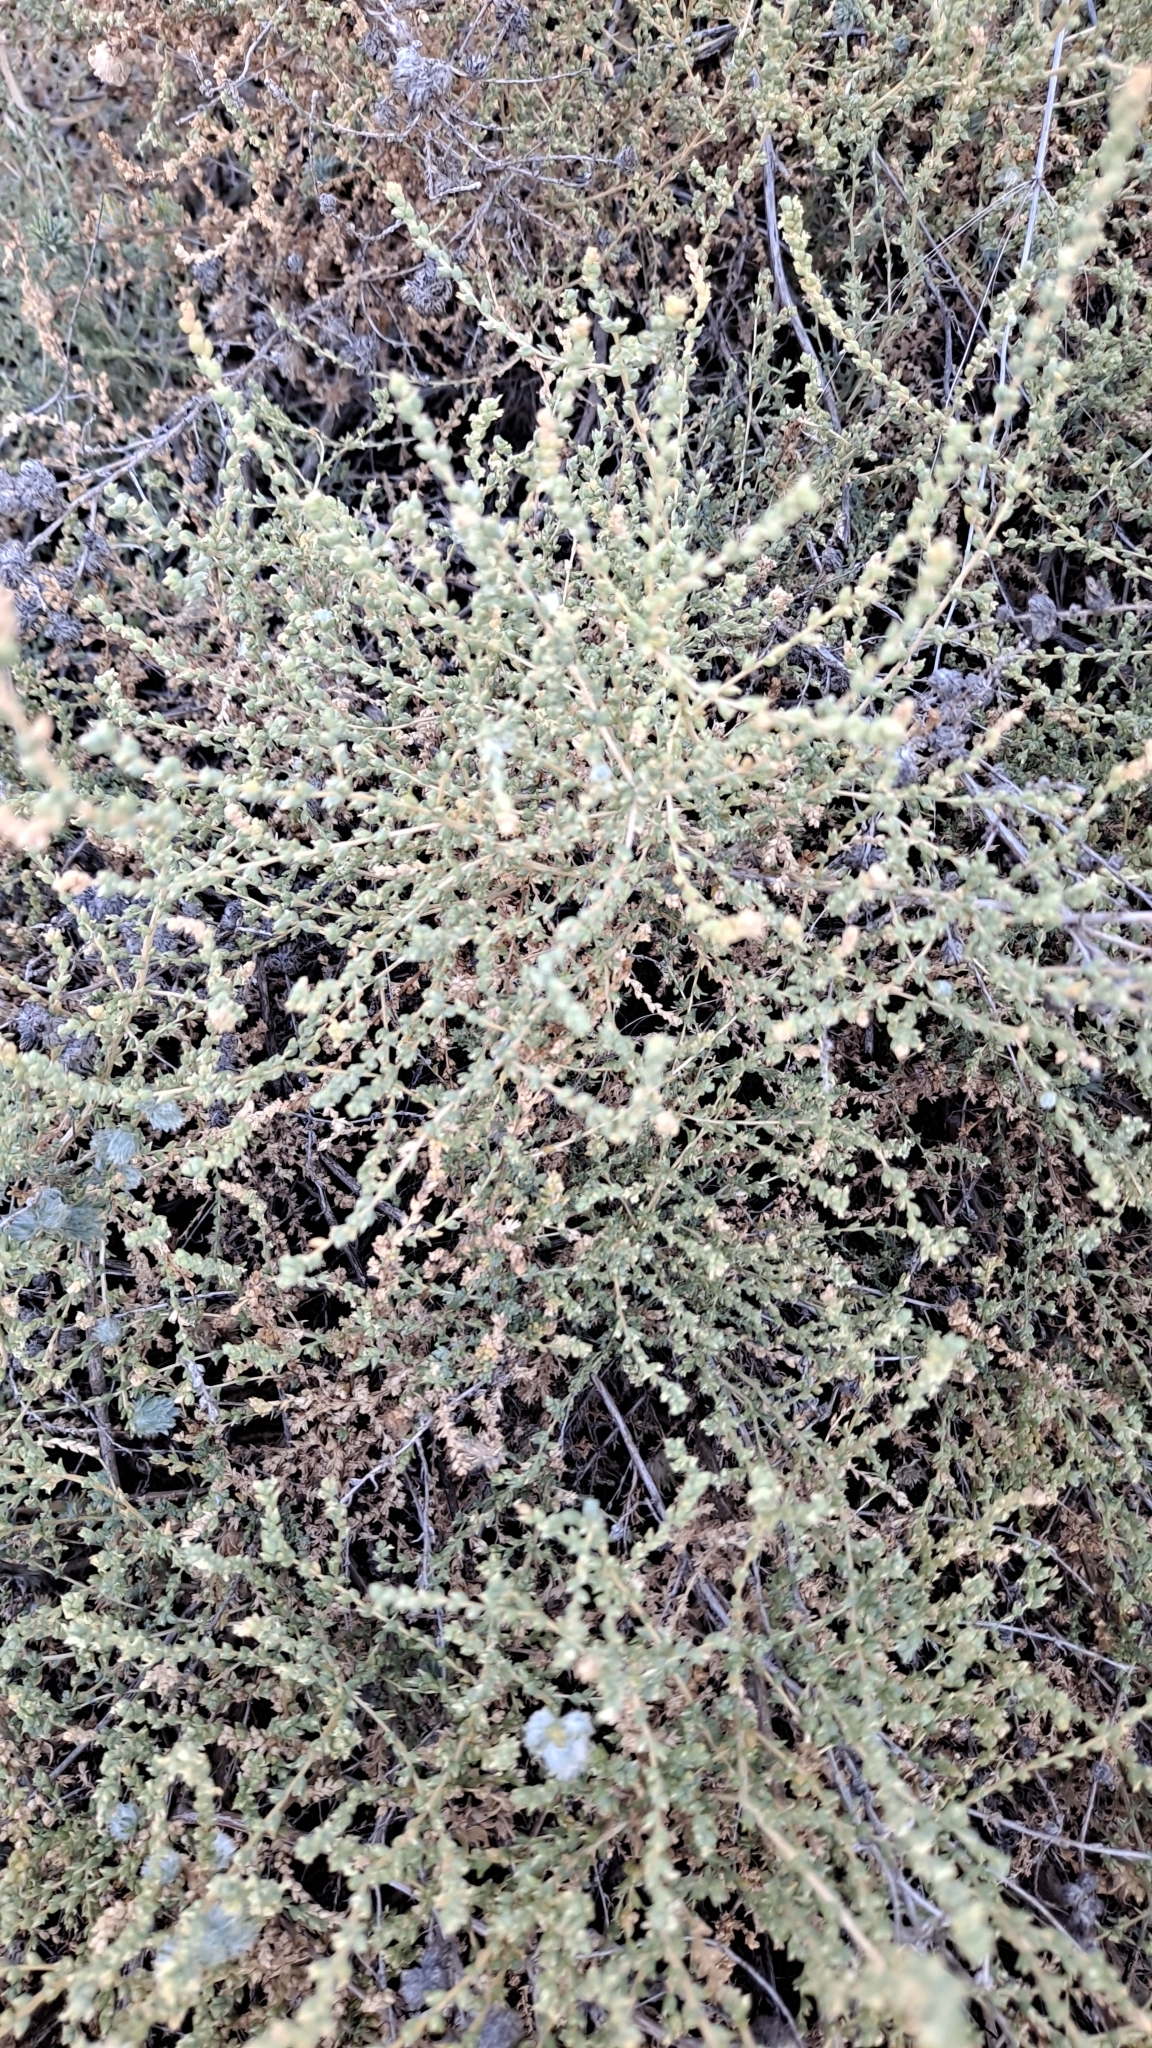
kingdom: Plantae
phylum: Tracheophyta
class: Magnoliopsida
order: Caryophyllales
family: Amaranthaceae
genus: Nitrosalsola
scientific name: Nitrosalsola vermiculata
